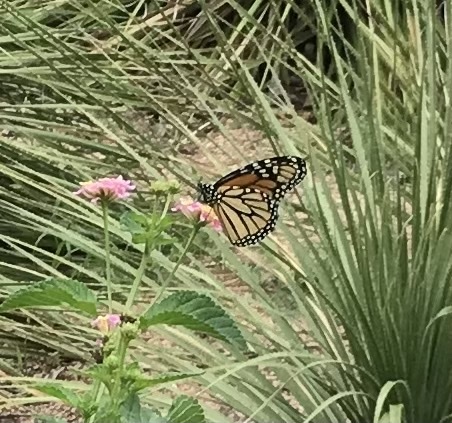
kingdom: Animalia
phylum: Arthropoda
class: Insecta
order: Lepidoptera
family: Nymphalidae
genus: Danaus
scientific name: Danaus plexippus
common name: Monarch
